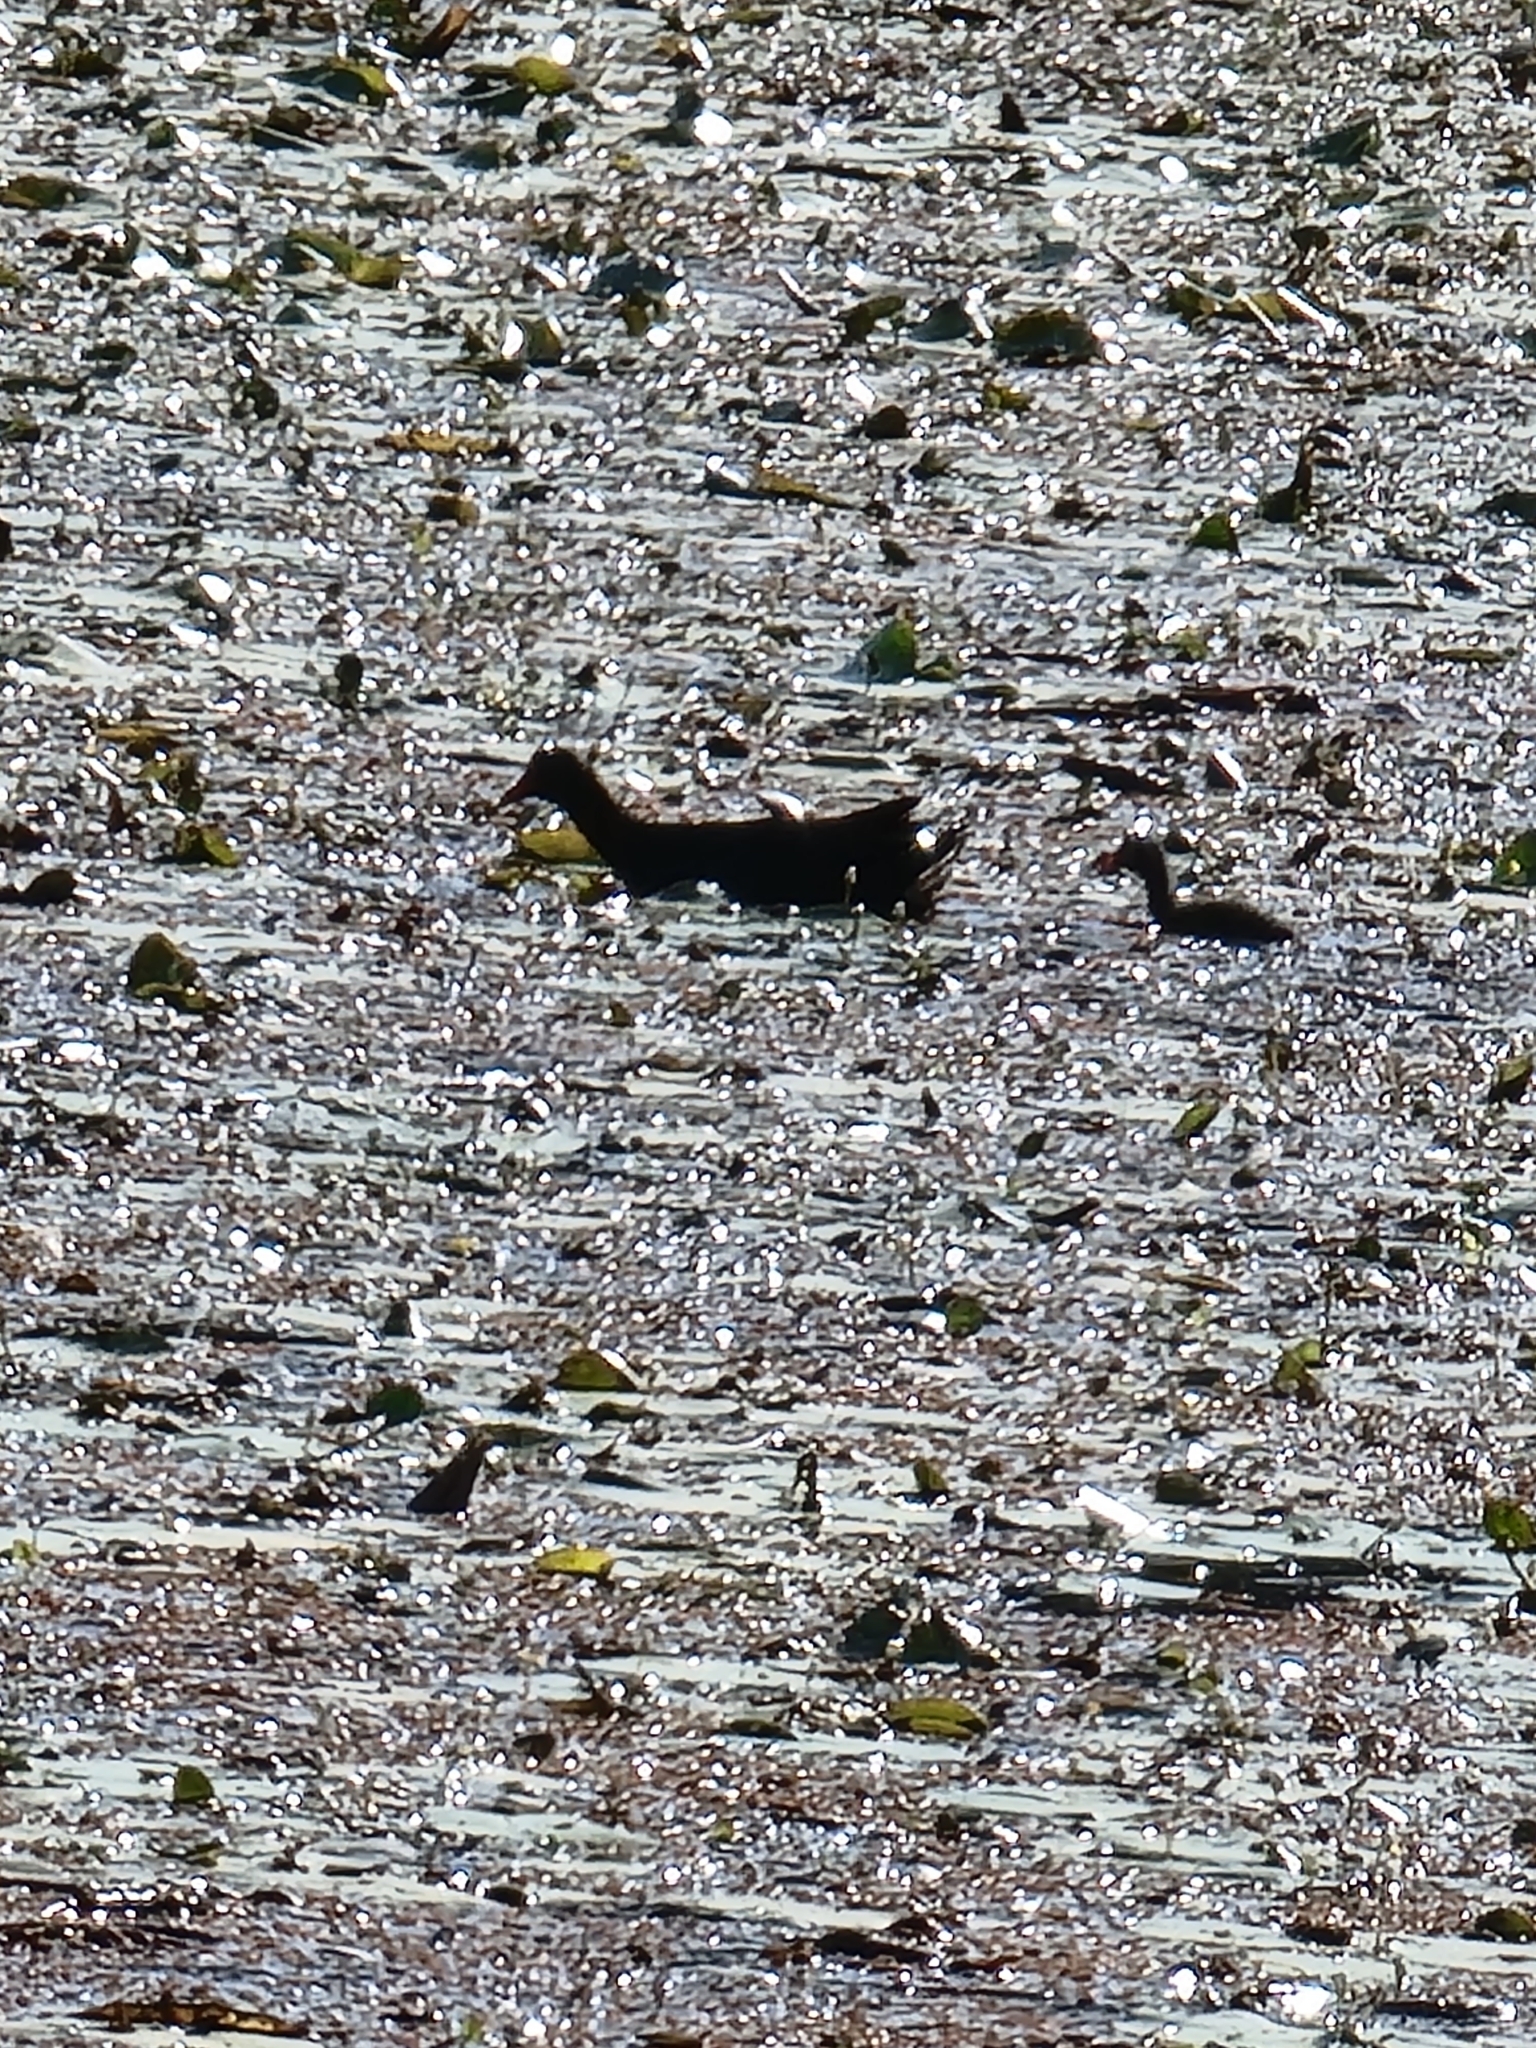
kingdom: Animalia
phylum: Chordata
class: Aves
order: Gruiformes
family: Rallidae
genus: Gallinula
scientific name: Gallinula tenebrosa
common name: Dusky moorhen
